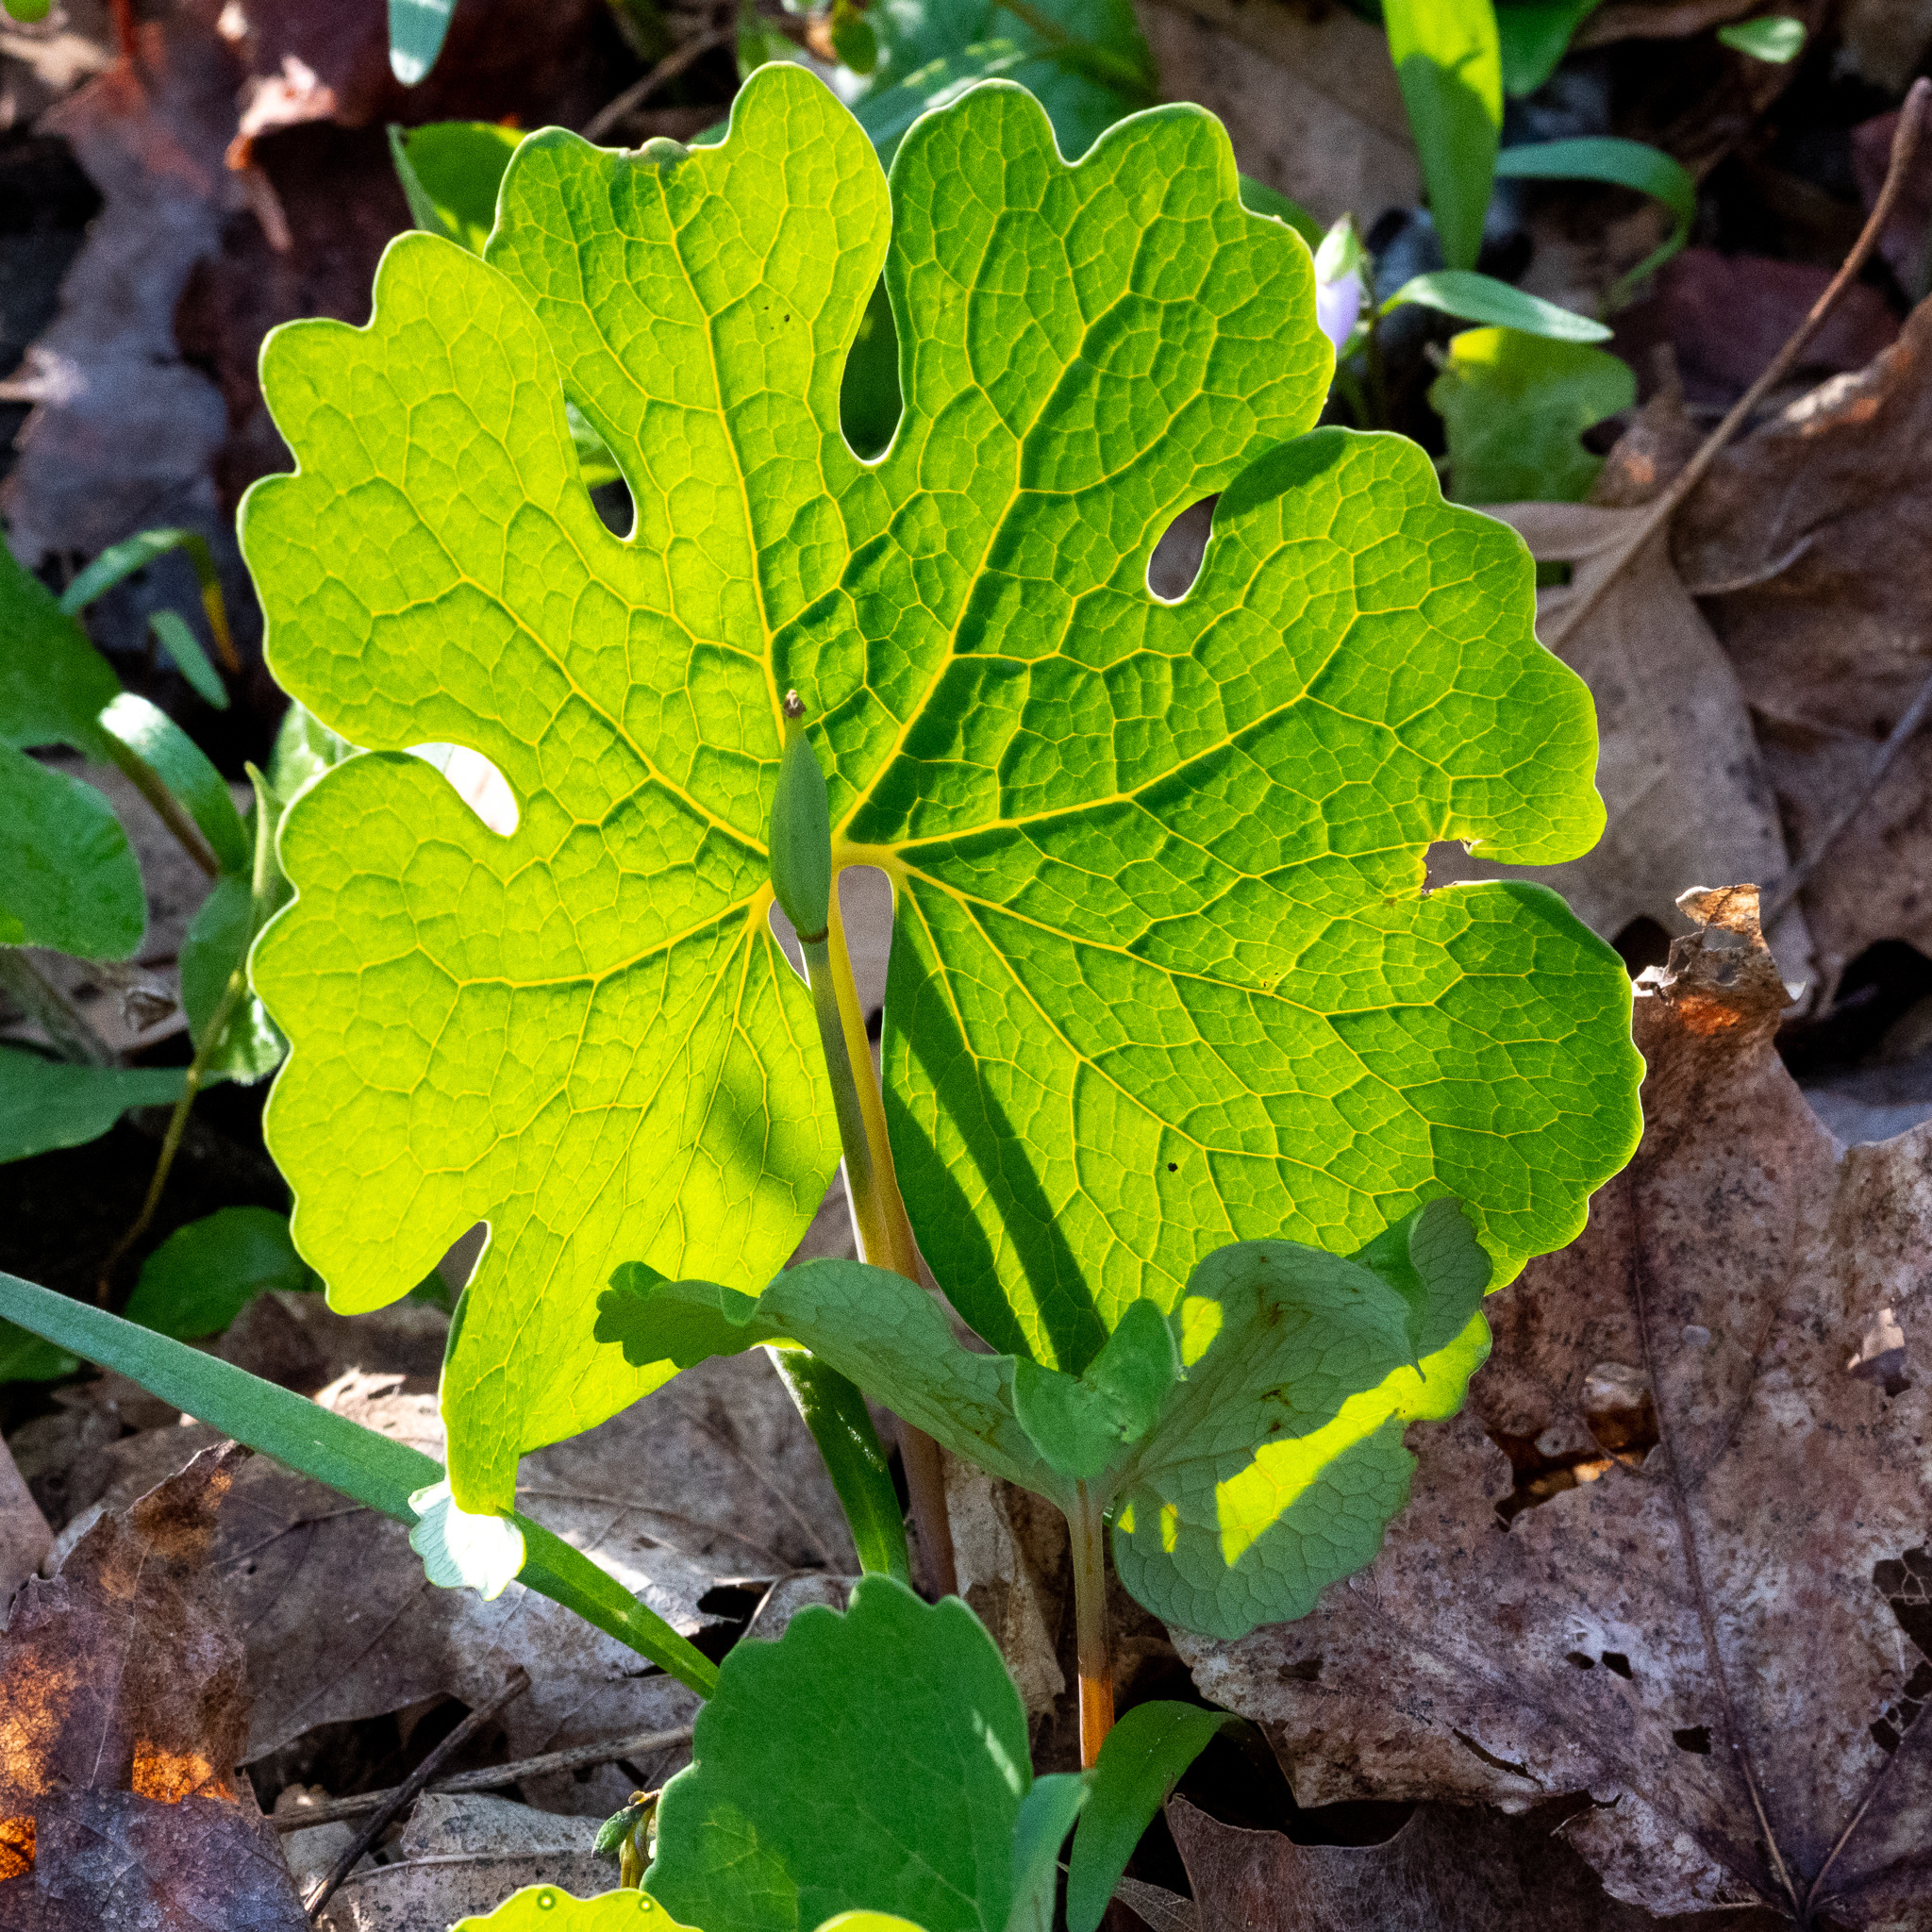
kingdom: Plantae
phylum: Tracheophyta
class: Magnoliopsida
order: Ranunculales
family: Papaveraceae
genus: Sanguinaria
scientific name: Sanguinaria canadensis
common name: Bloodroot
